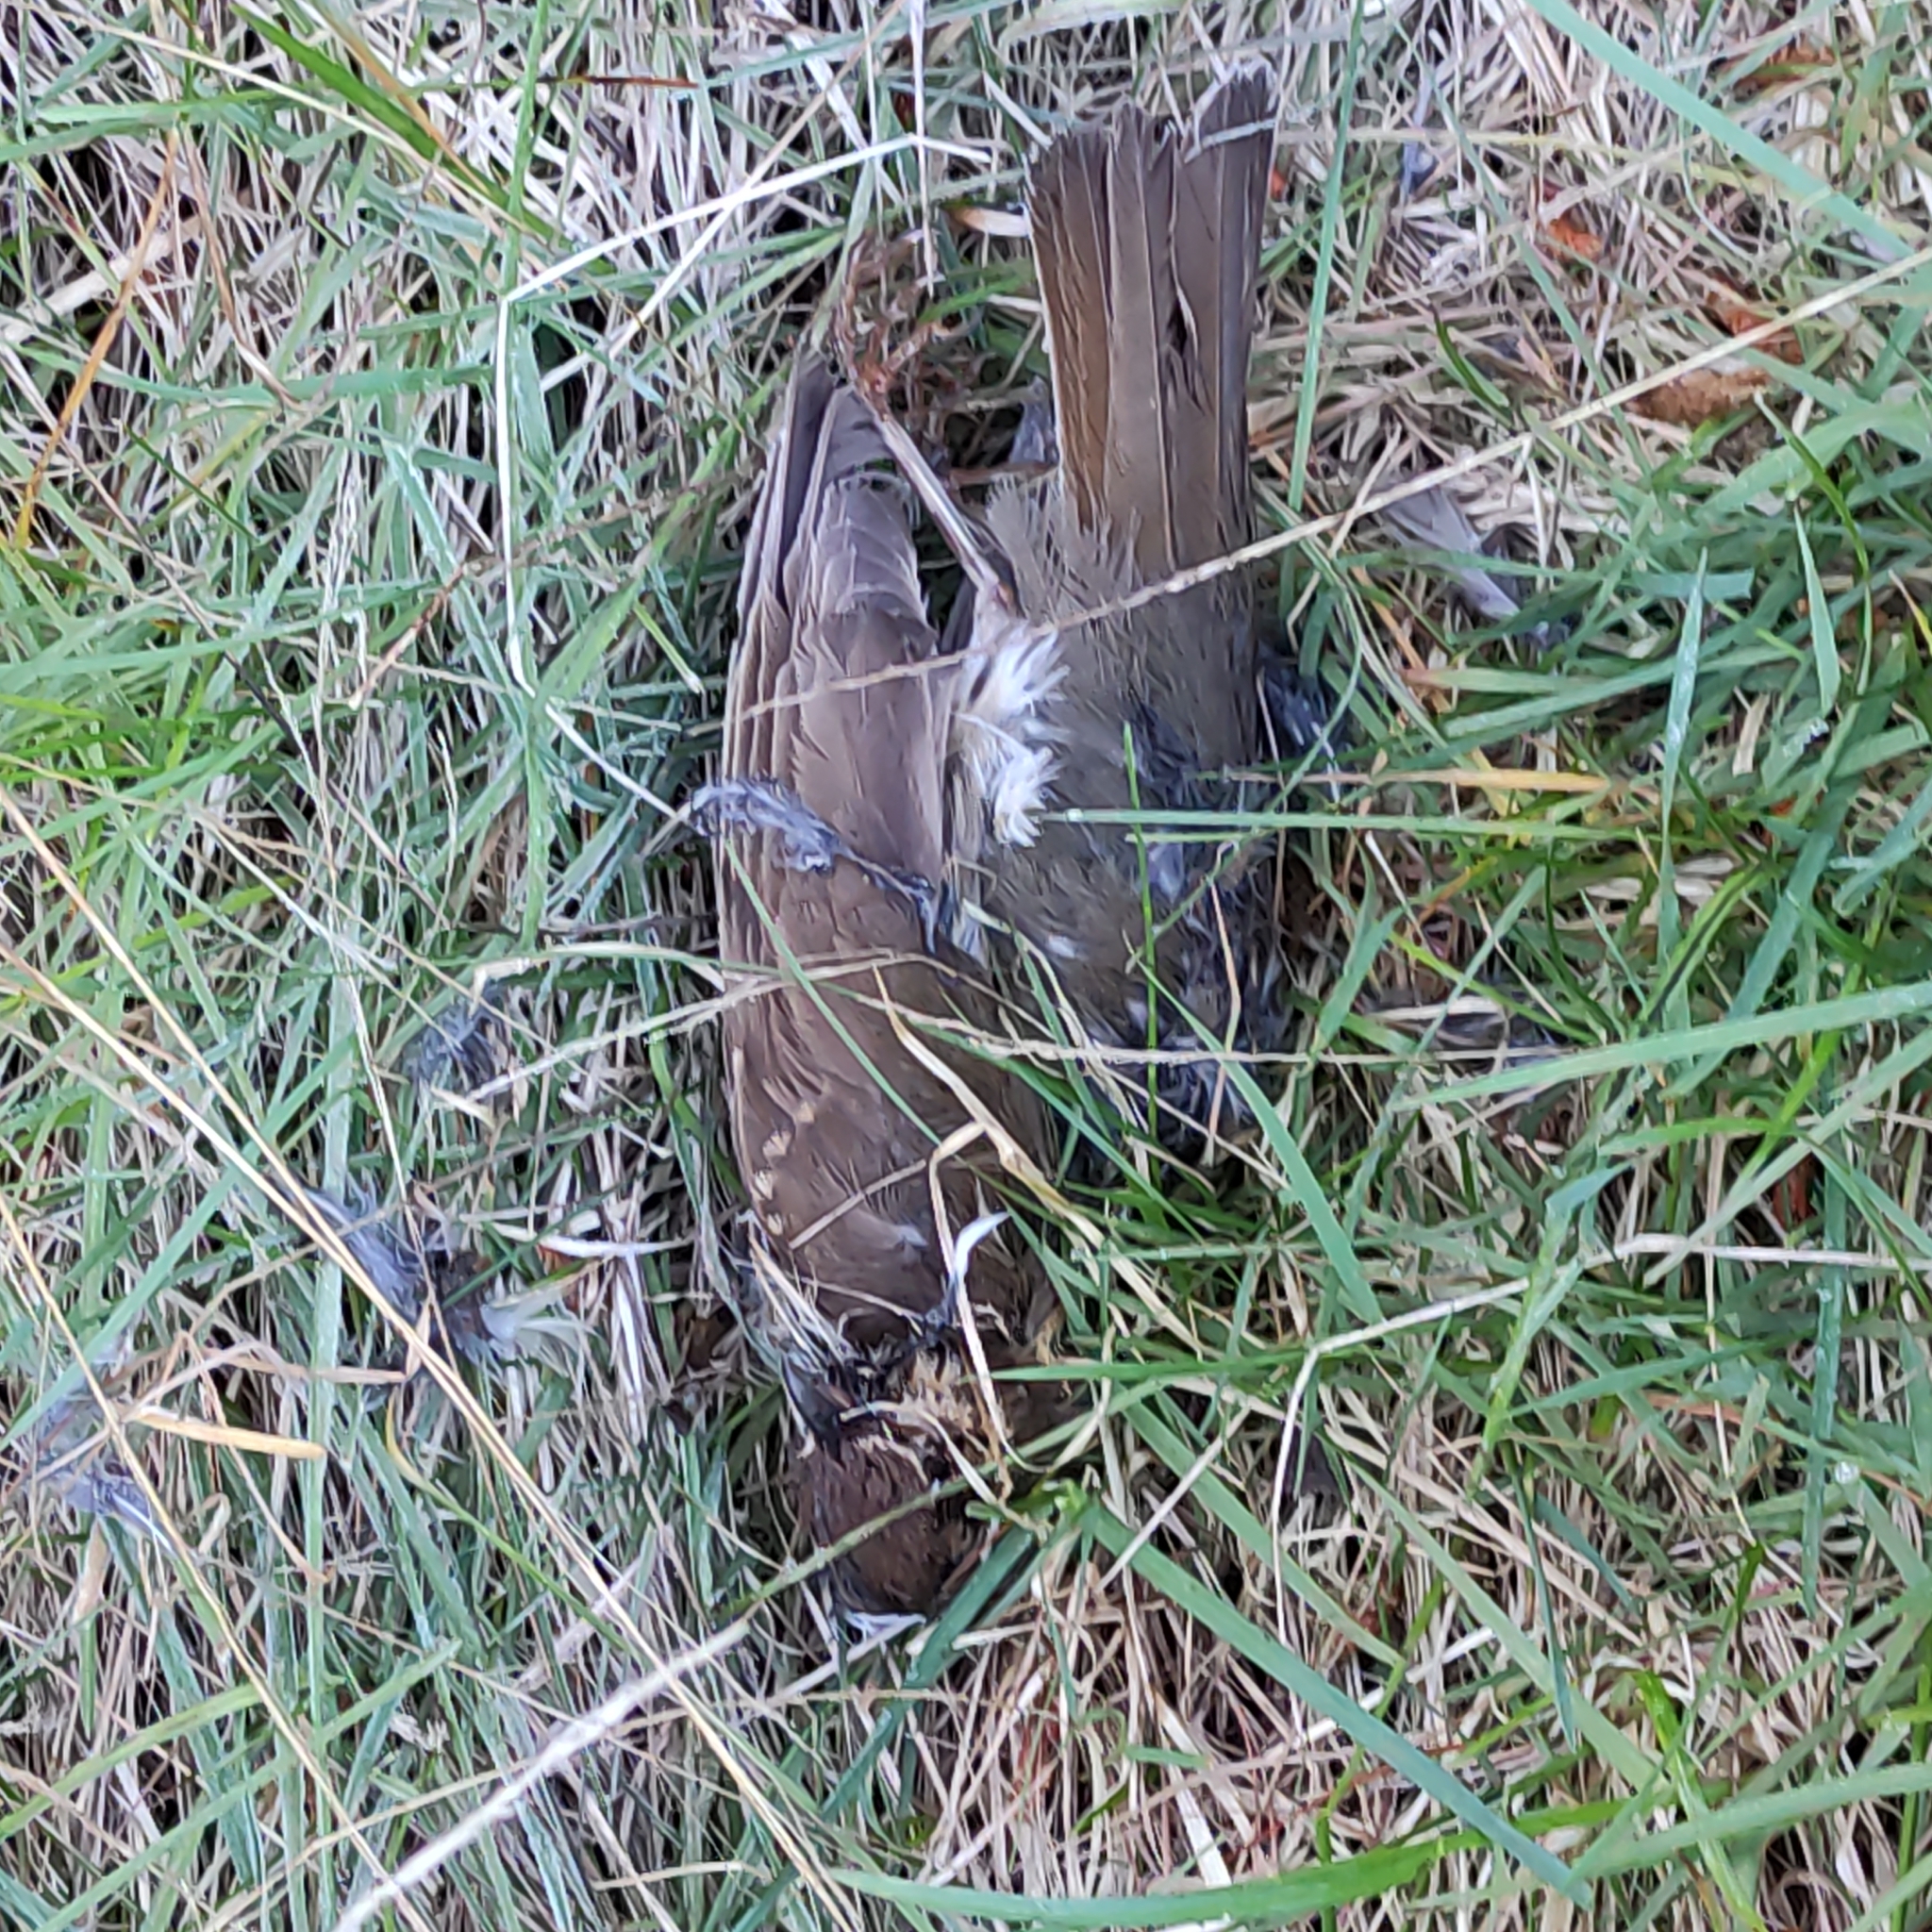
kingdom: Animalia
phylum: Chordata
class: Aves
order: Passeriformes
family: Turdidae
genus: Turdus
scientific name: Turdus philomelos
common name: Song thrush
